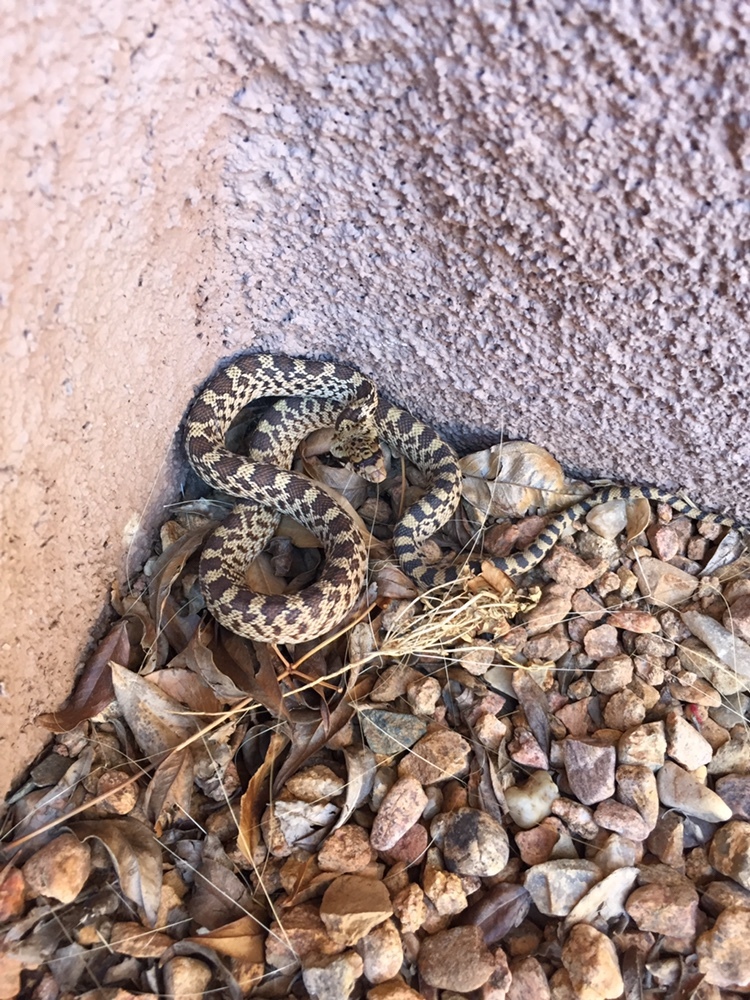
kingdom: Animalia
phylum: Chordata
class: Squamata
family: Colubridae
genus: Pituophis
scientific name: Pituophis catenifer
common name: Gopher snake
